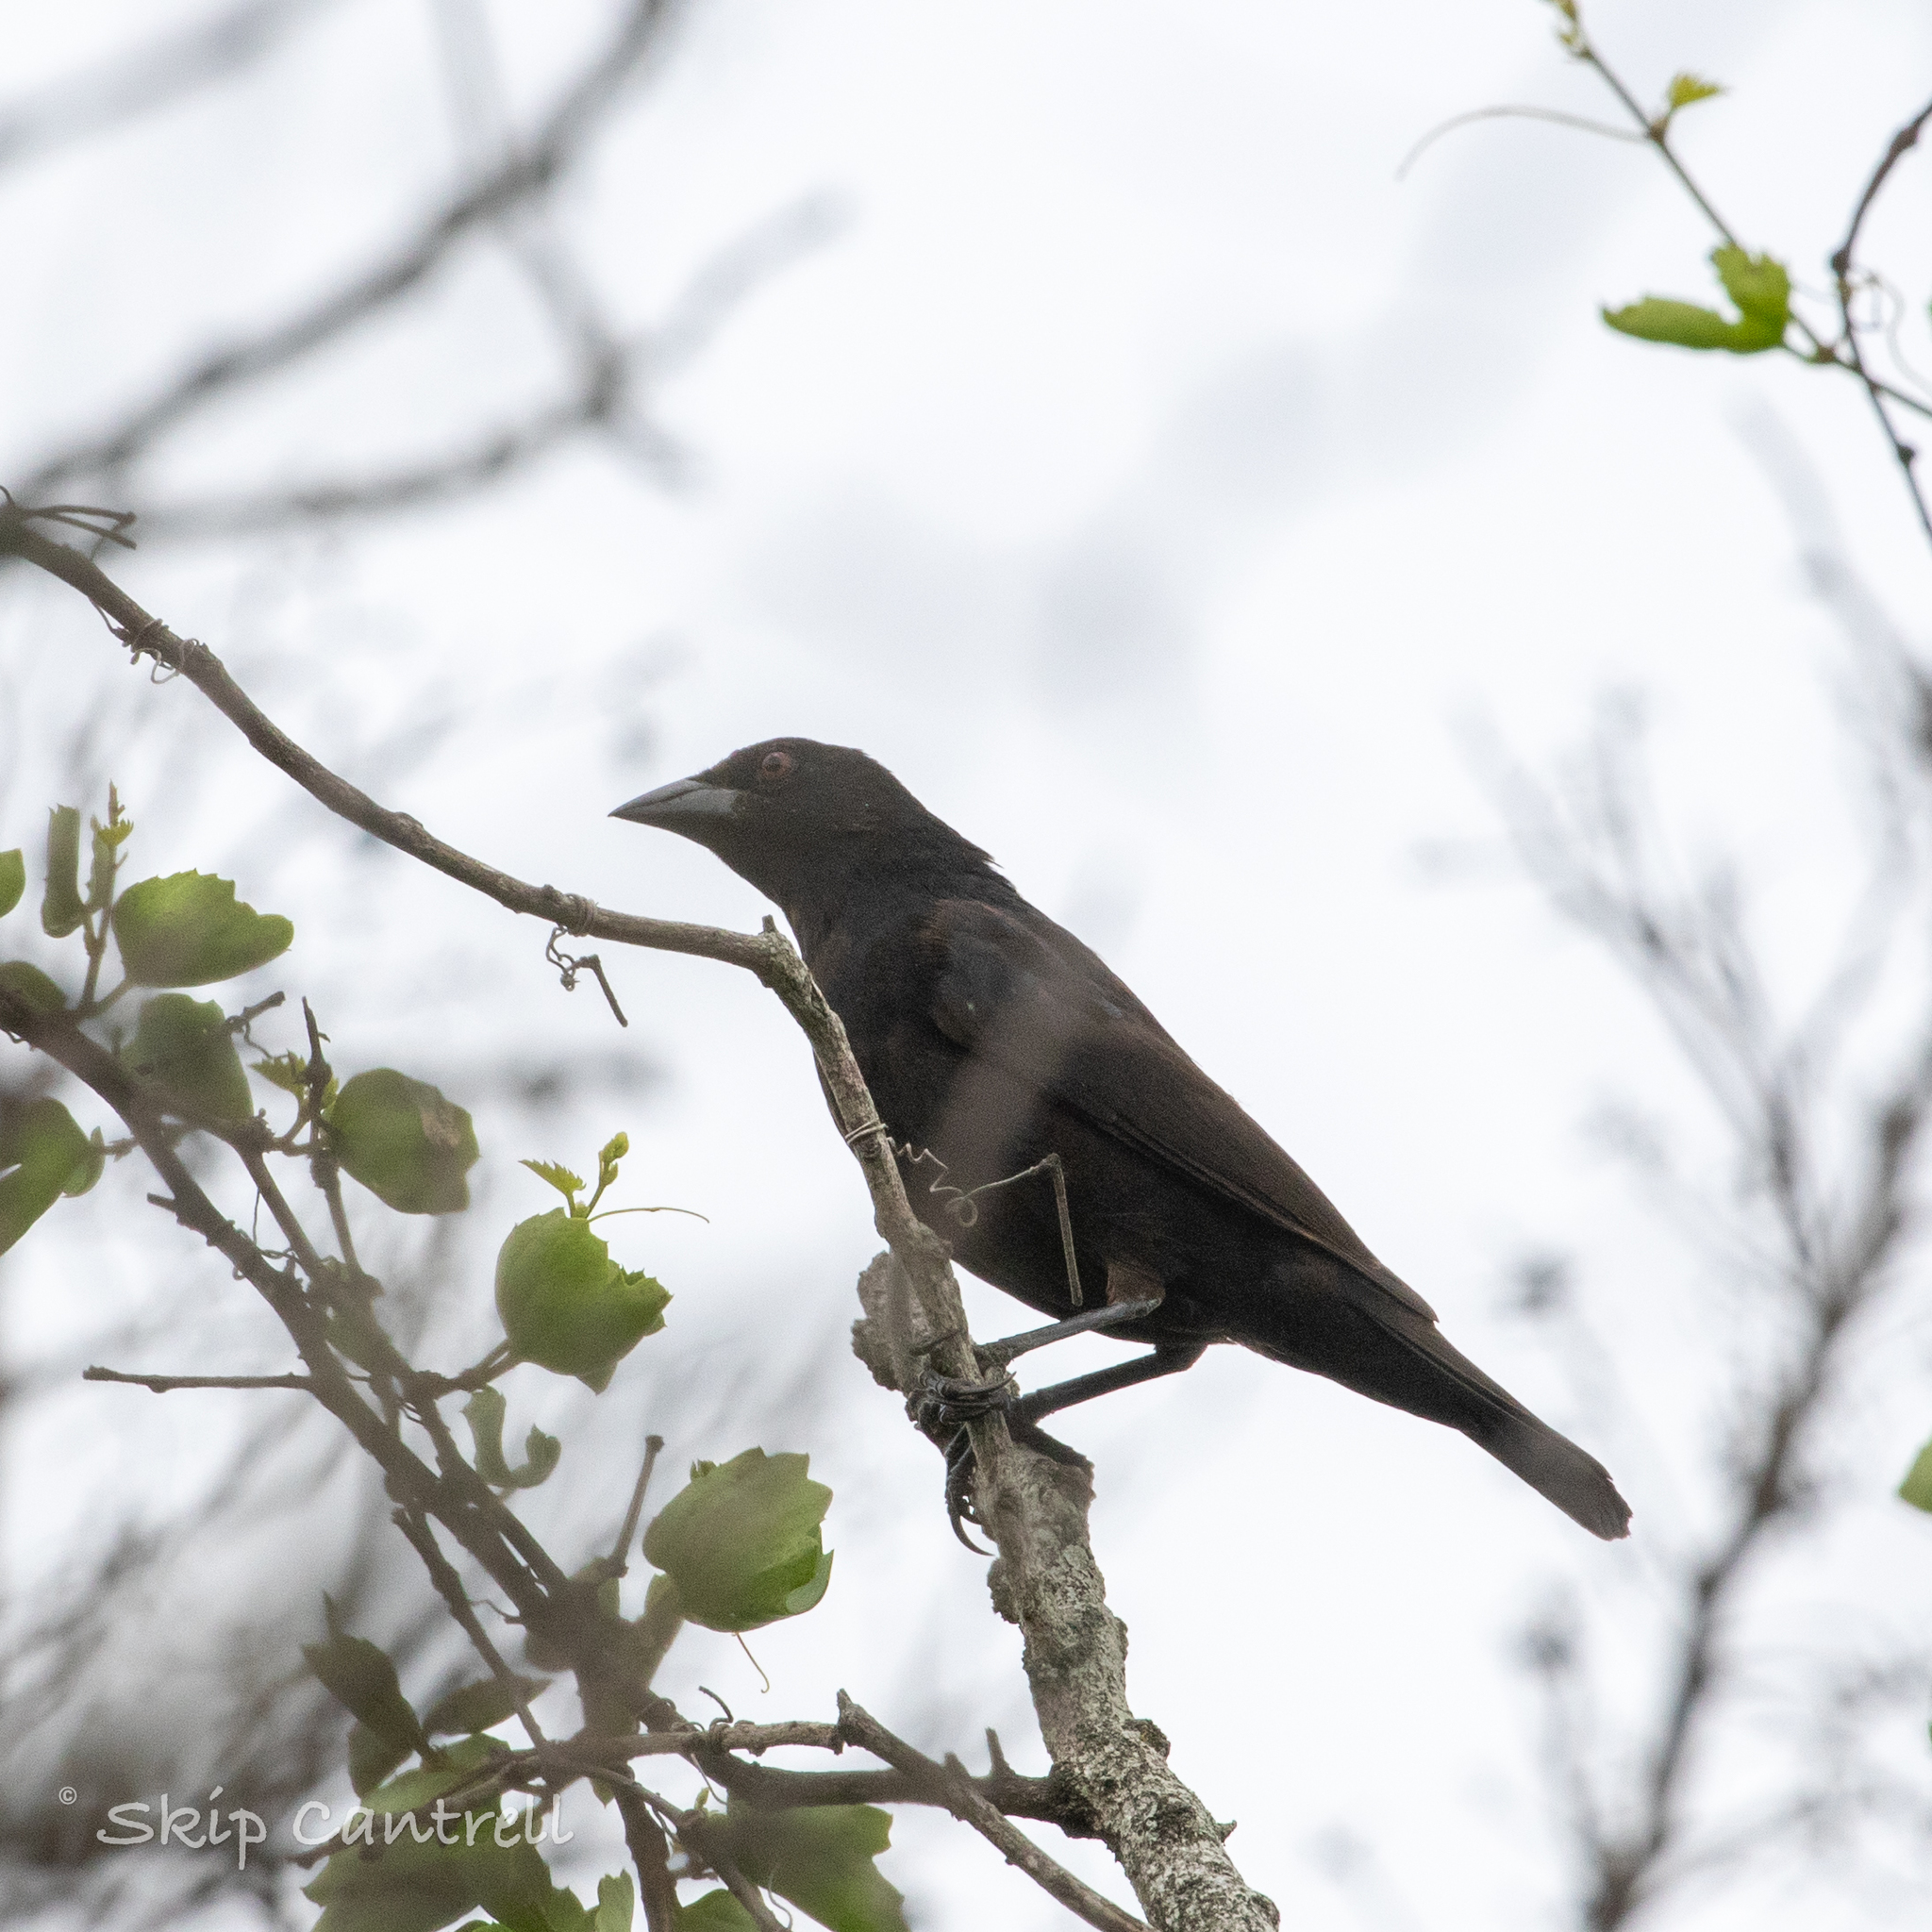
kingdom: Animalia
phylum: Chordata
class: Aves
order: Passeriformes
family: Icteridae
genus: Molothrus
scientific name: Molothrus aeneus
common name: Bronzed cowbird
